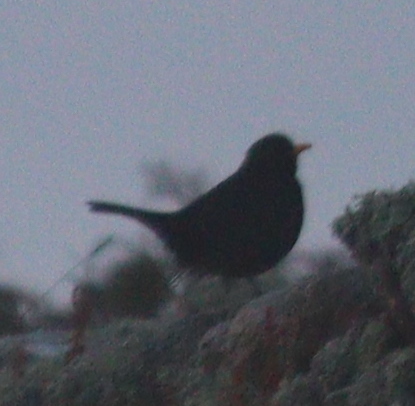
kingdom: Animalia
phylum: Chordata
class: Aves
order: Passeriformes
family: Turdidae
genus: Turdus
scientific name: Turdus merula
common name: Common blackbird
